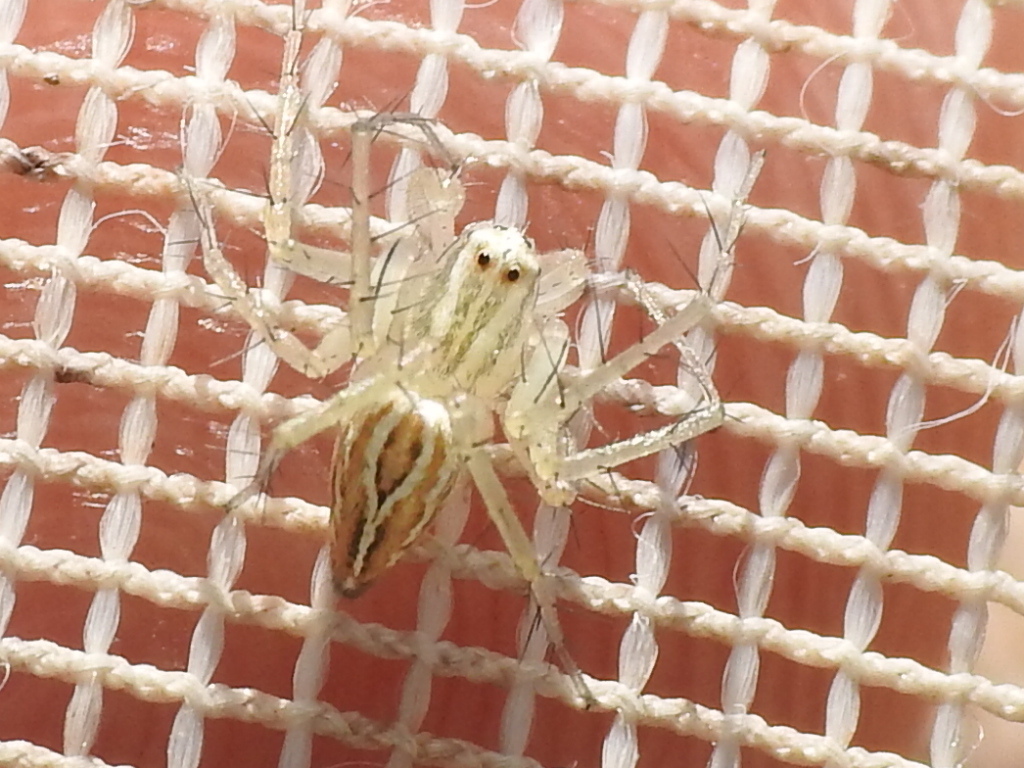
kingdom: Animalia
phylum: Arthropoda
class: Arachnida
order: Araneae
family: Oxyopidae
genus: Oxyopes
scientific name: Oxyopes salticus
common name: Lynx spiders
